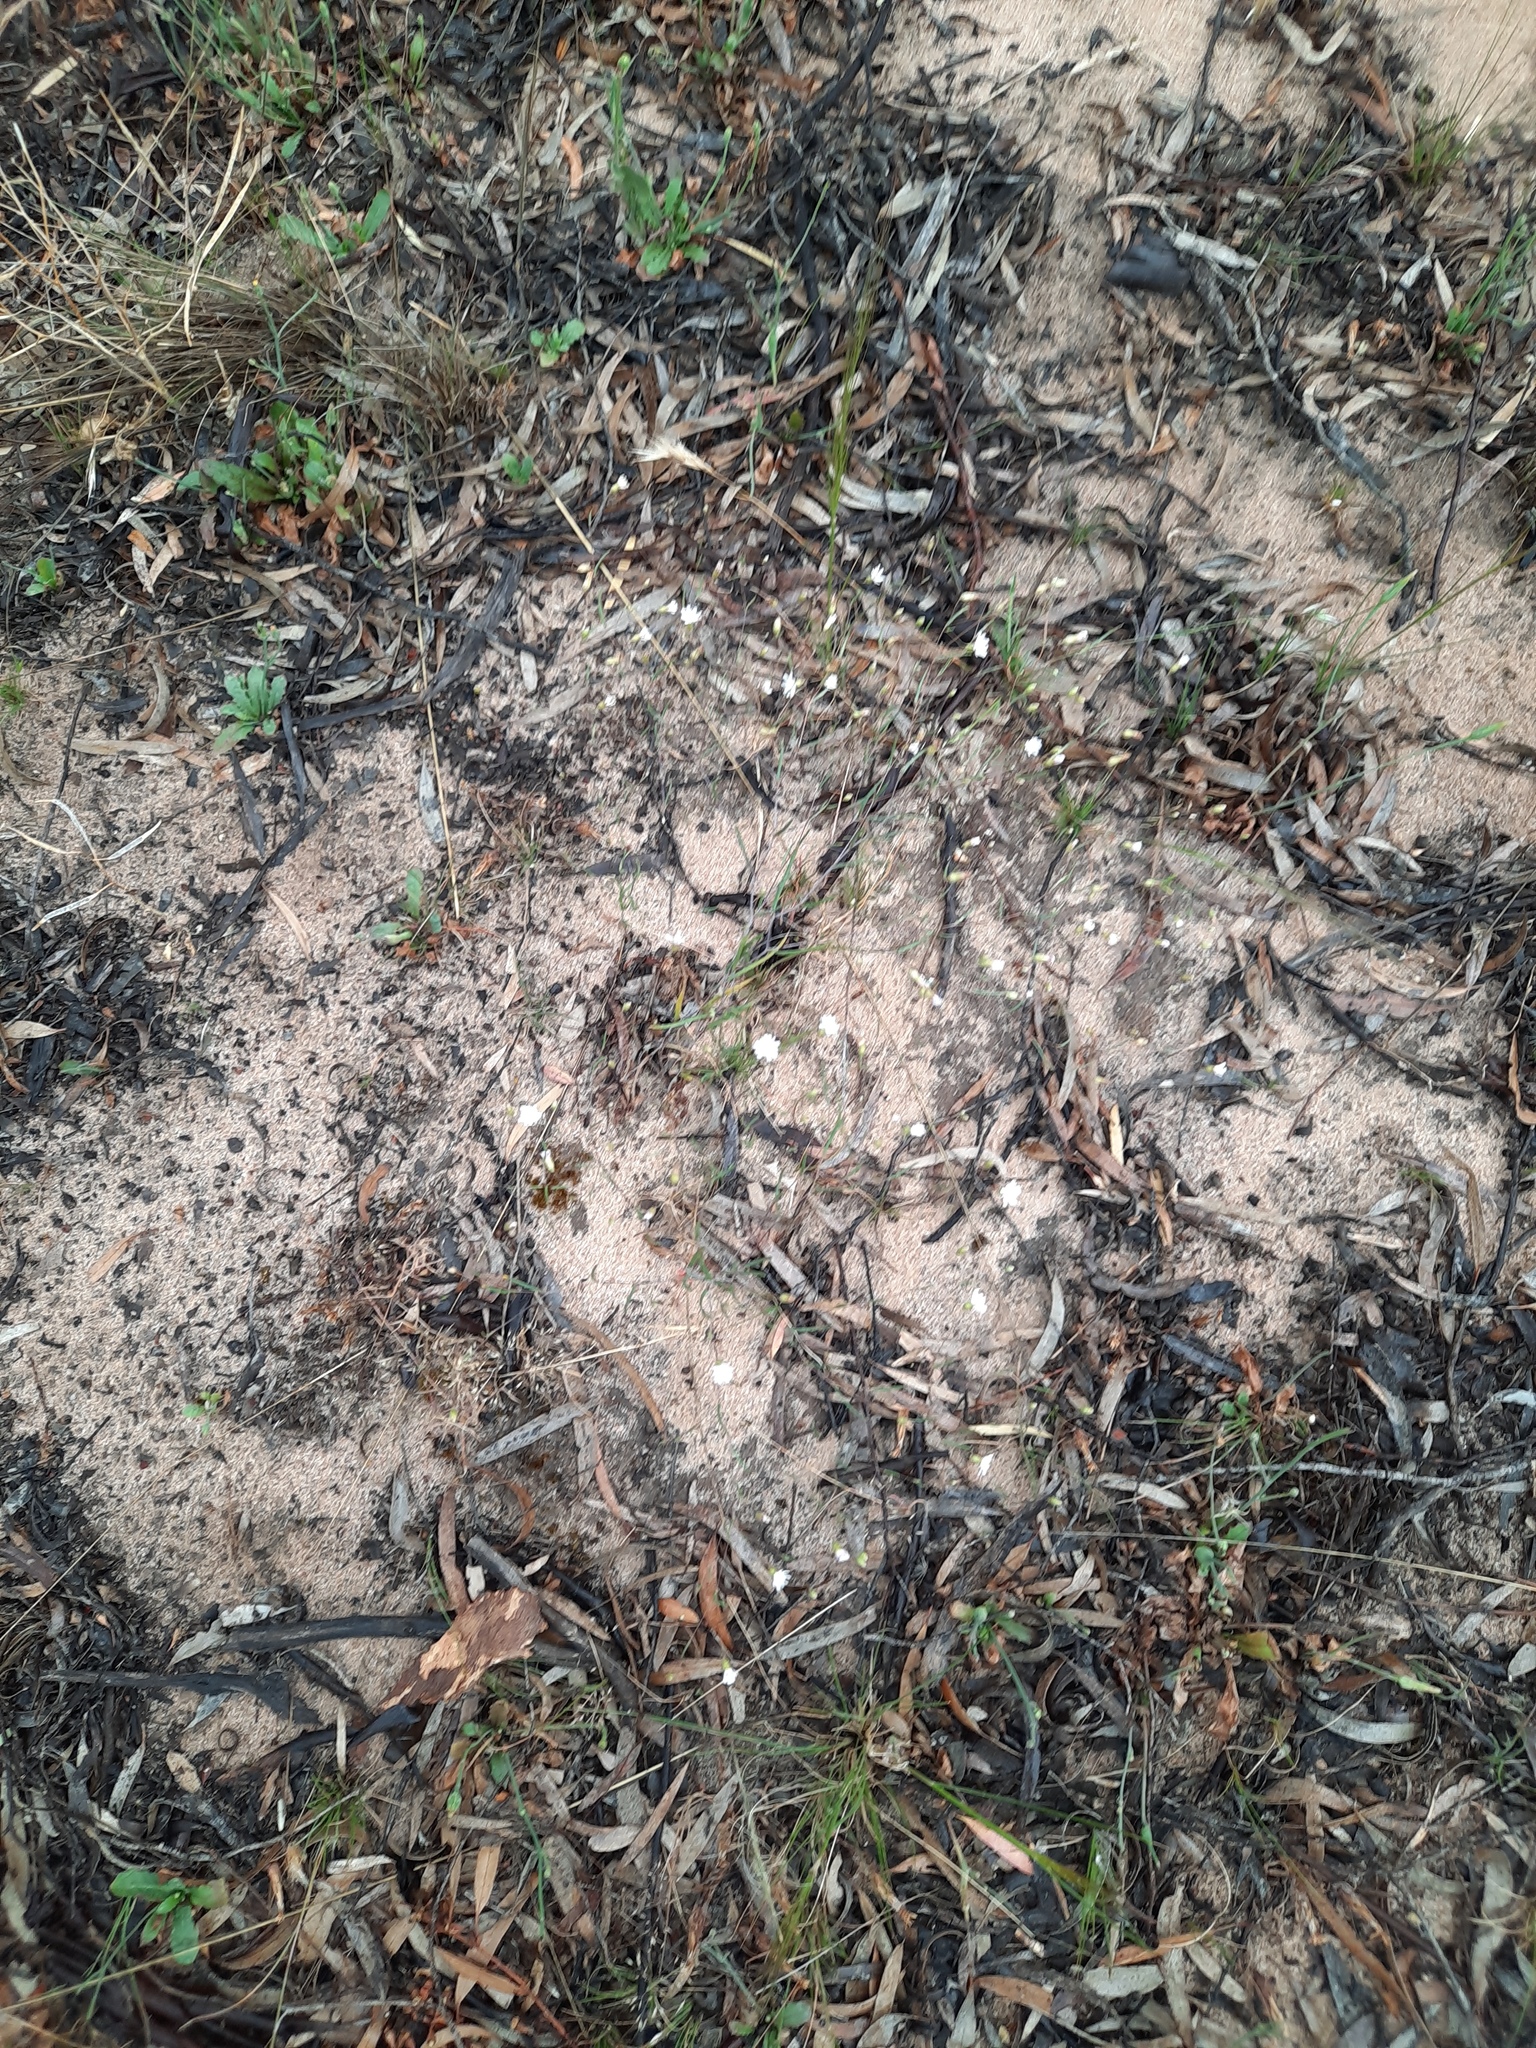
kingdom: Plantae
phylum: Tracheophyta
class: Magnoliopsida
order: Asterales
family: Asteraceae
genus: Siemssenia
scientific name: Siemssenia capillaris
